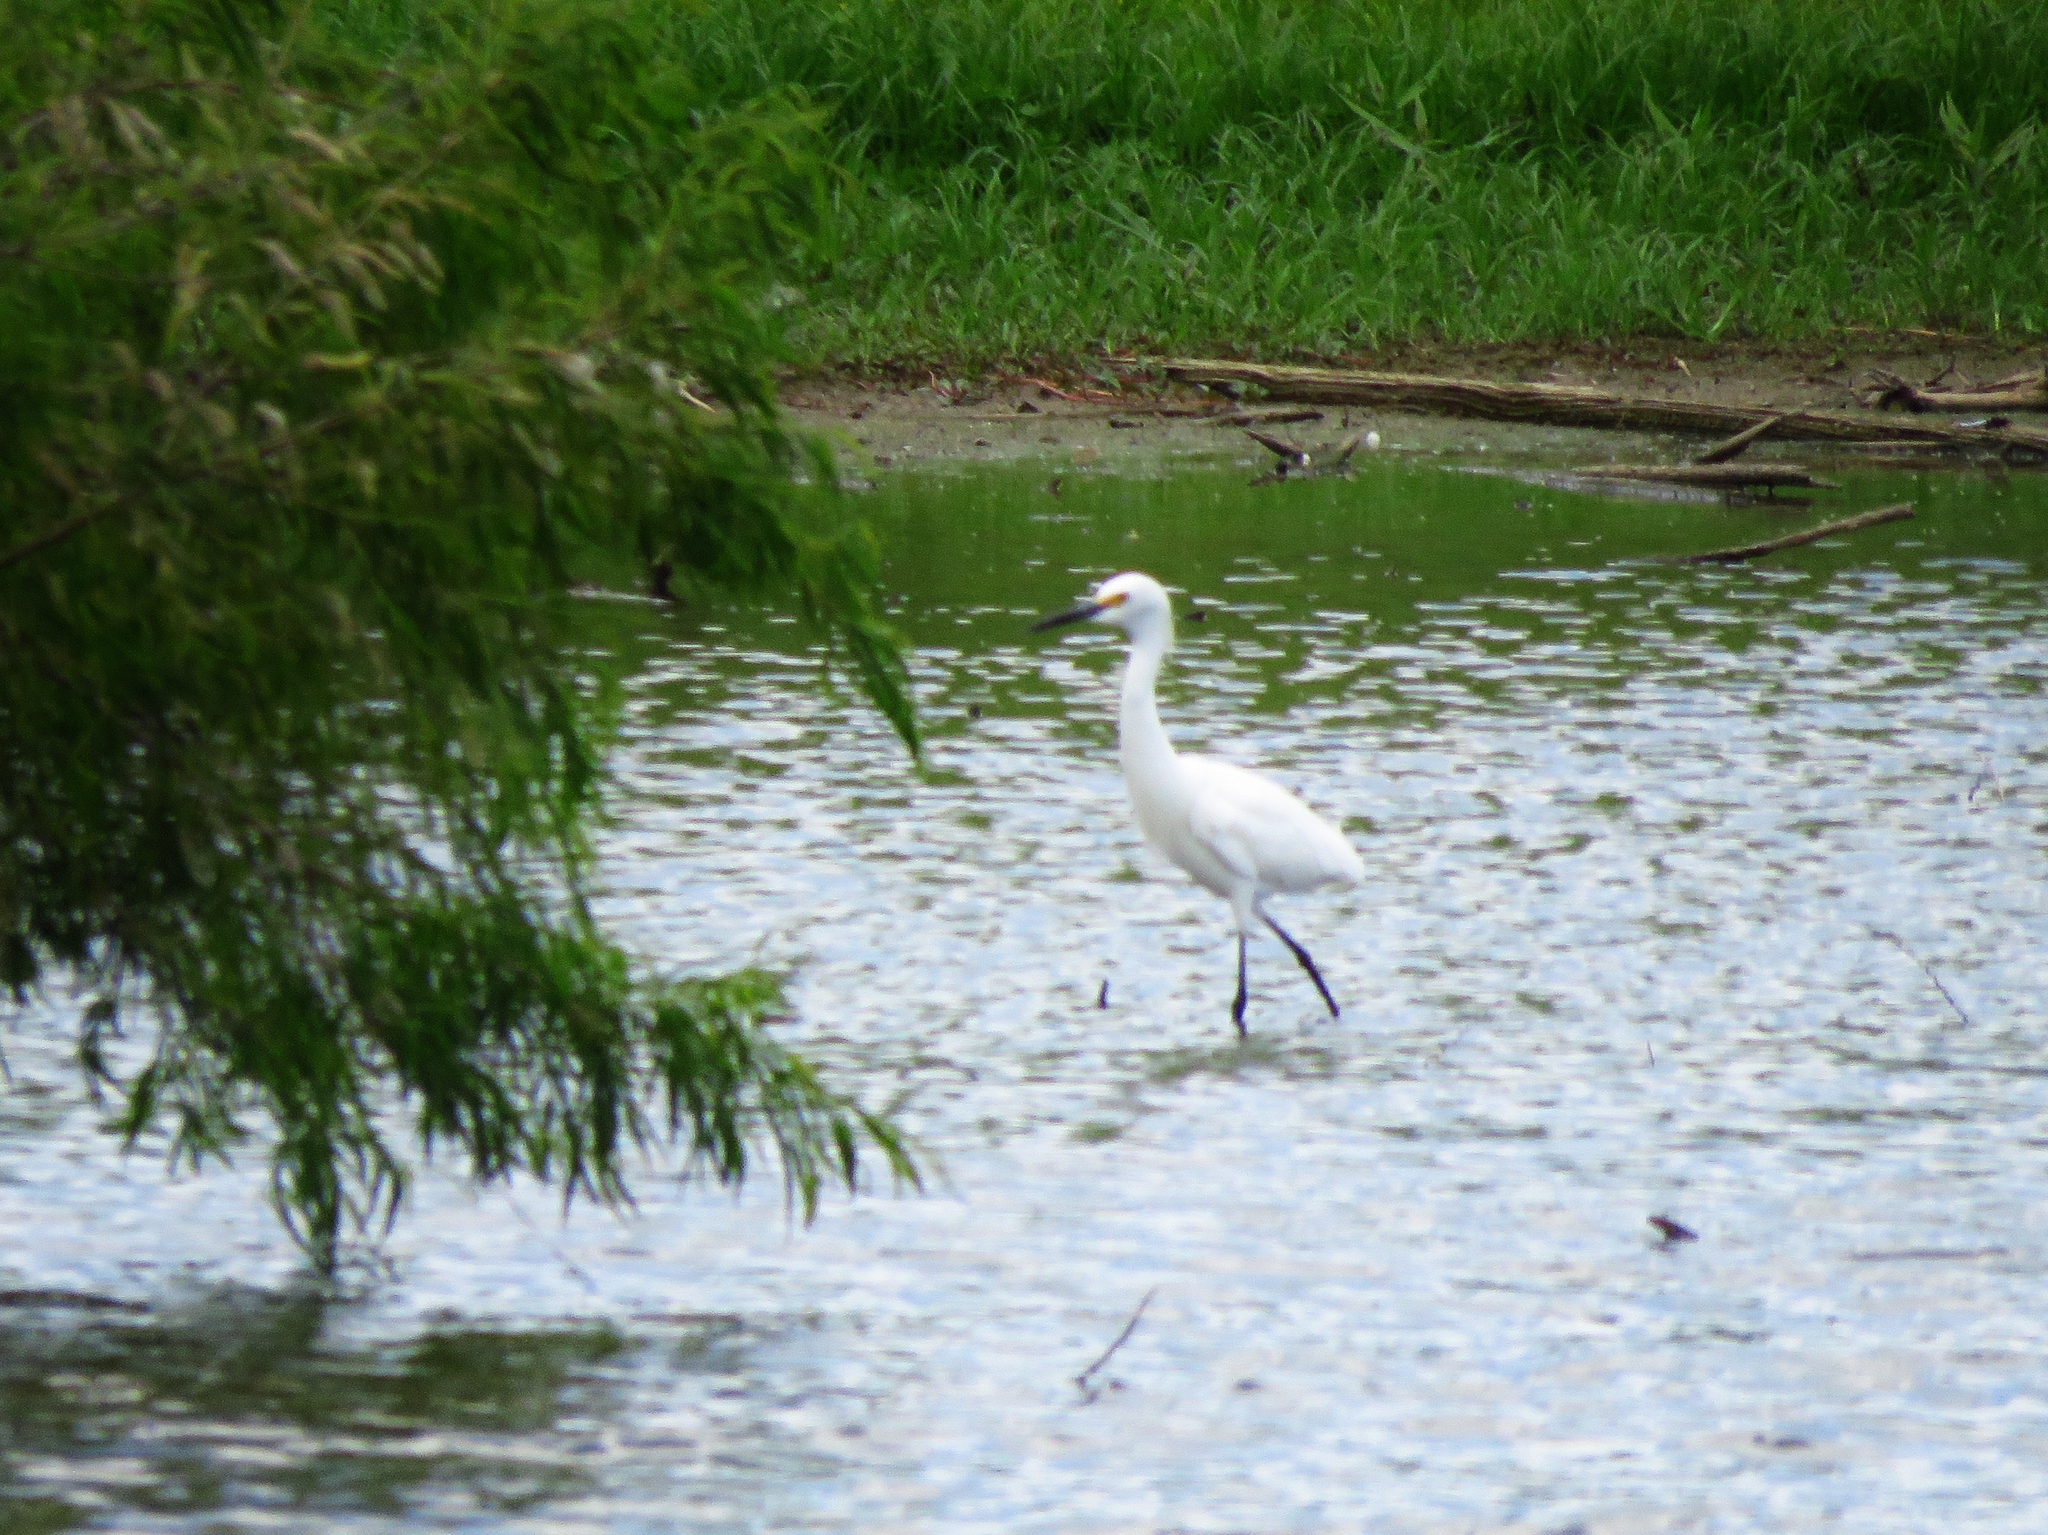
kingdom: Animalia
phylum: Chordata
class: Aves
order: Pelecaniformes
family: Ardeidae
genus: Egretta
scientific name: Egretta thula
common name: Snowy egret
